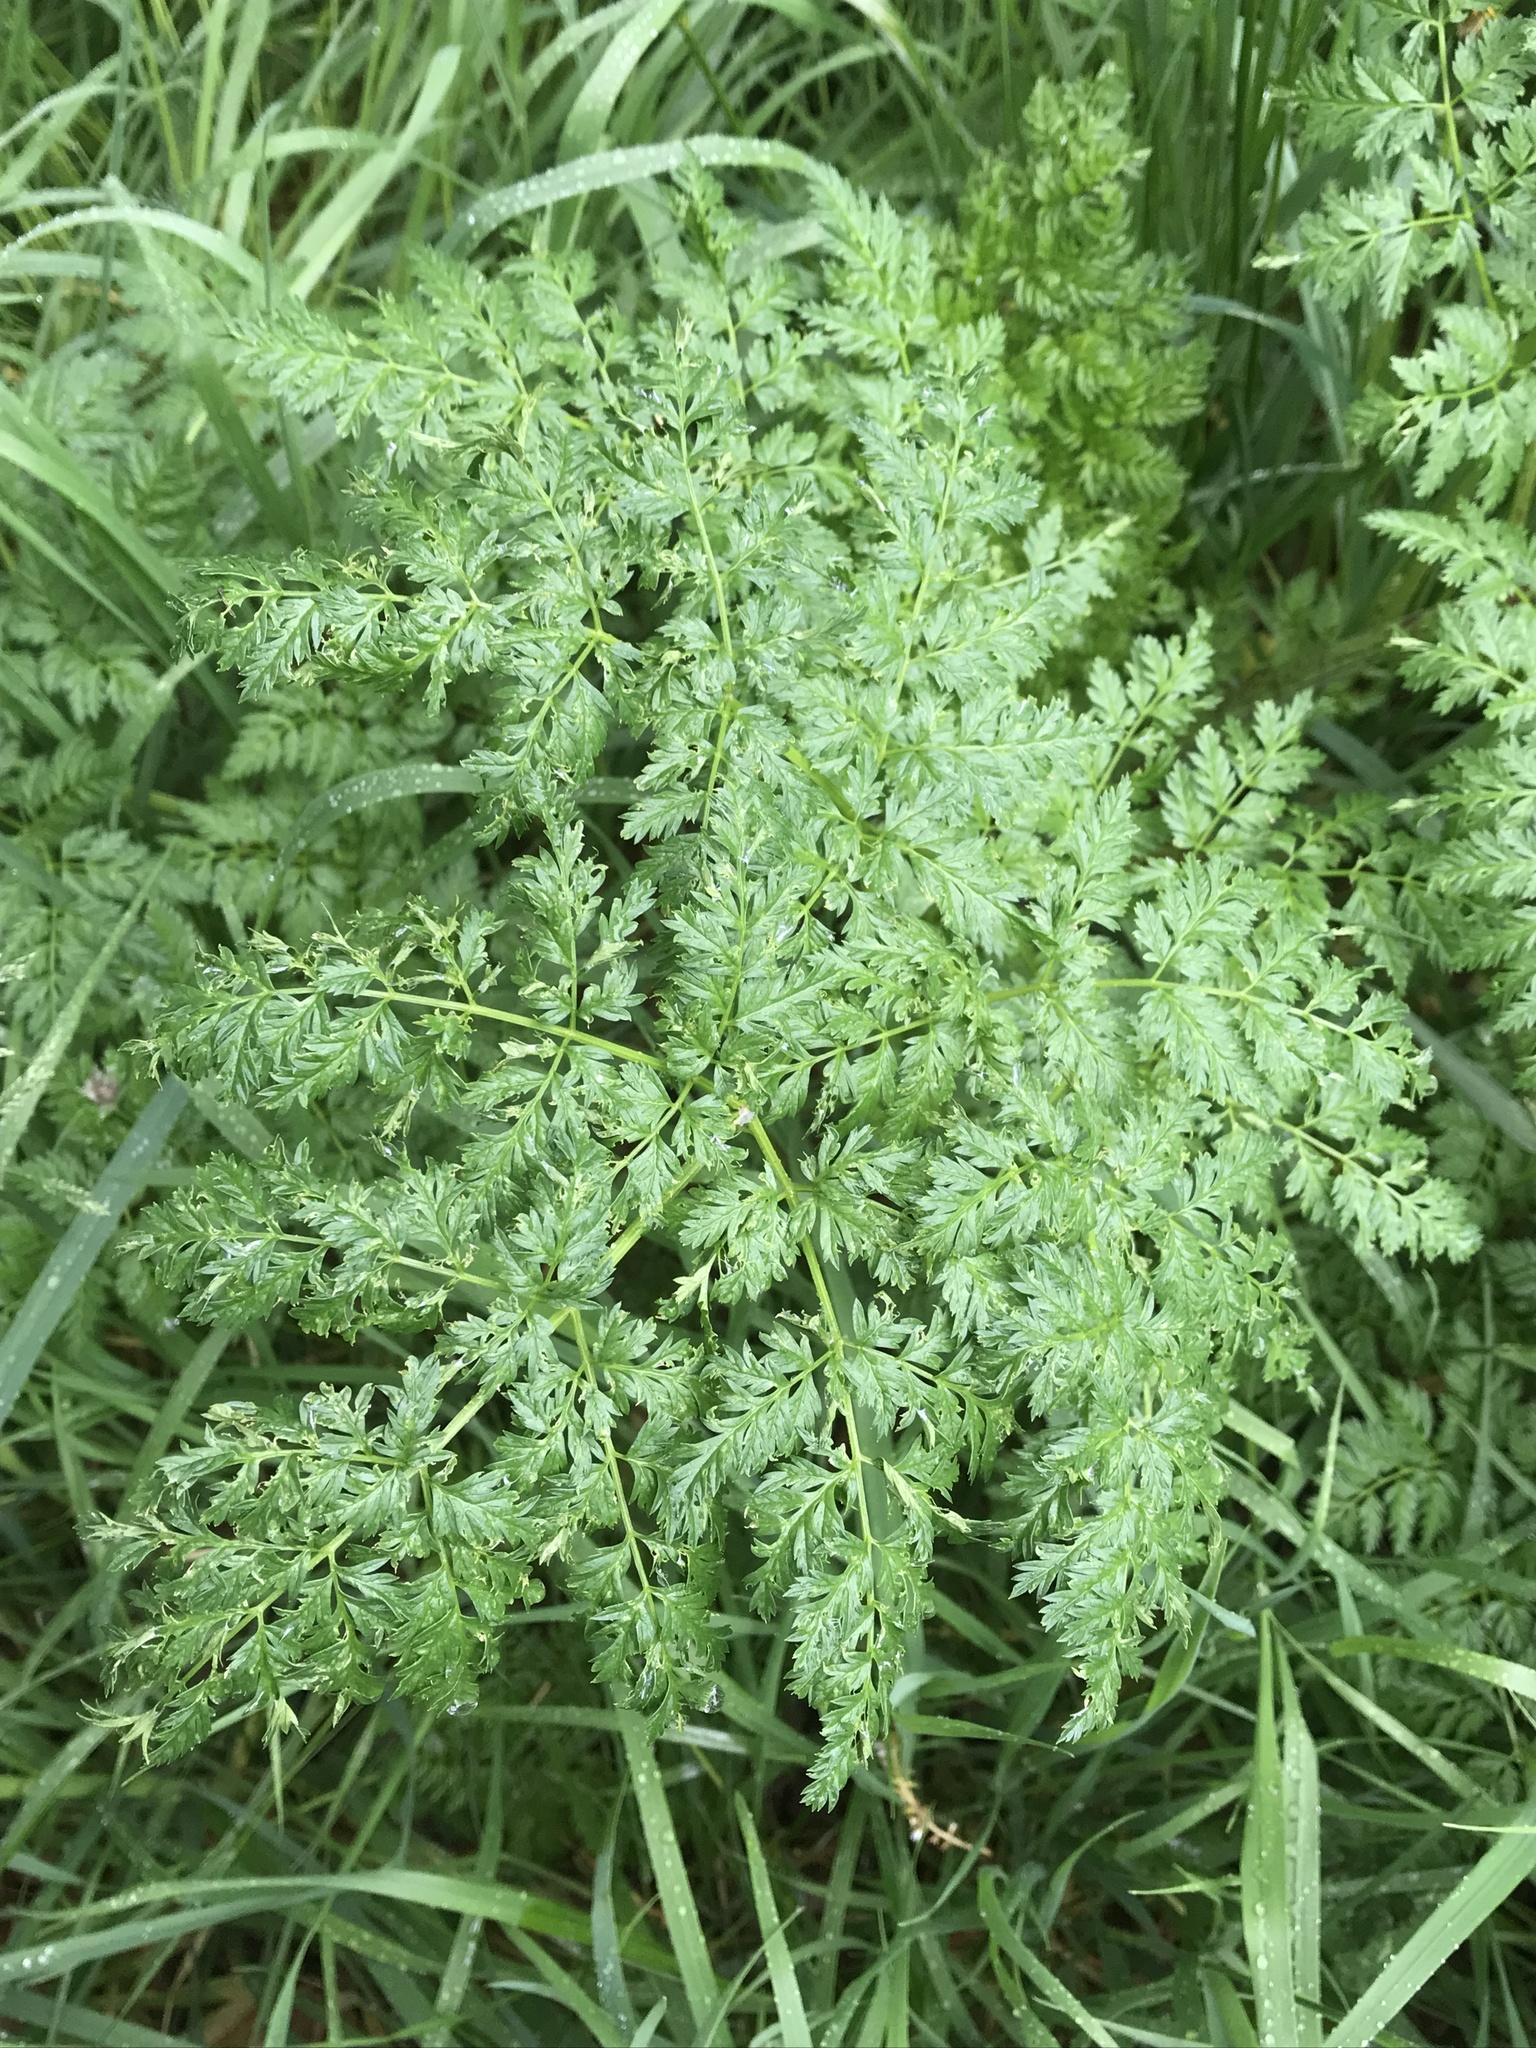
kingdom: Plantae
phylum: Tracheophyta
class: Magnoliopsida
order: Apiales
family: Apiaceae
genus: Conium
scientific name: Conium maculatum
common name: Hemlock
